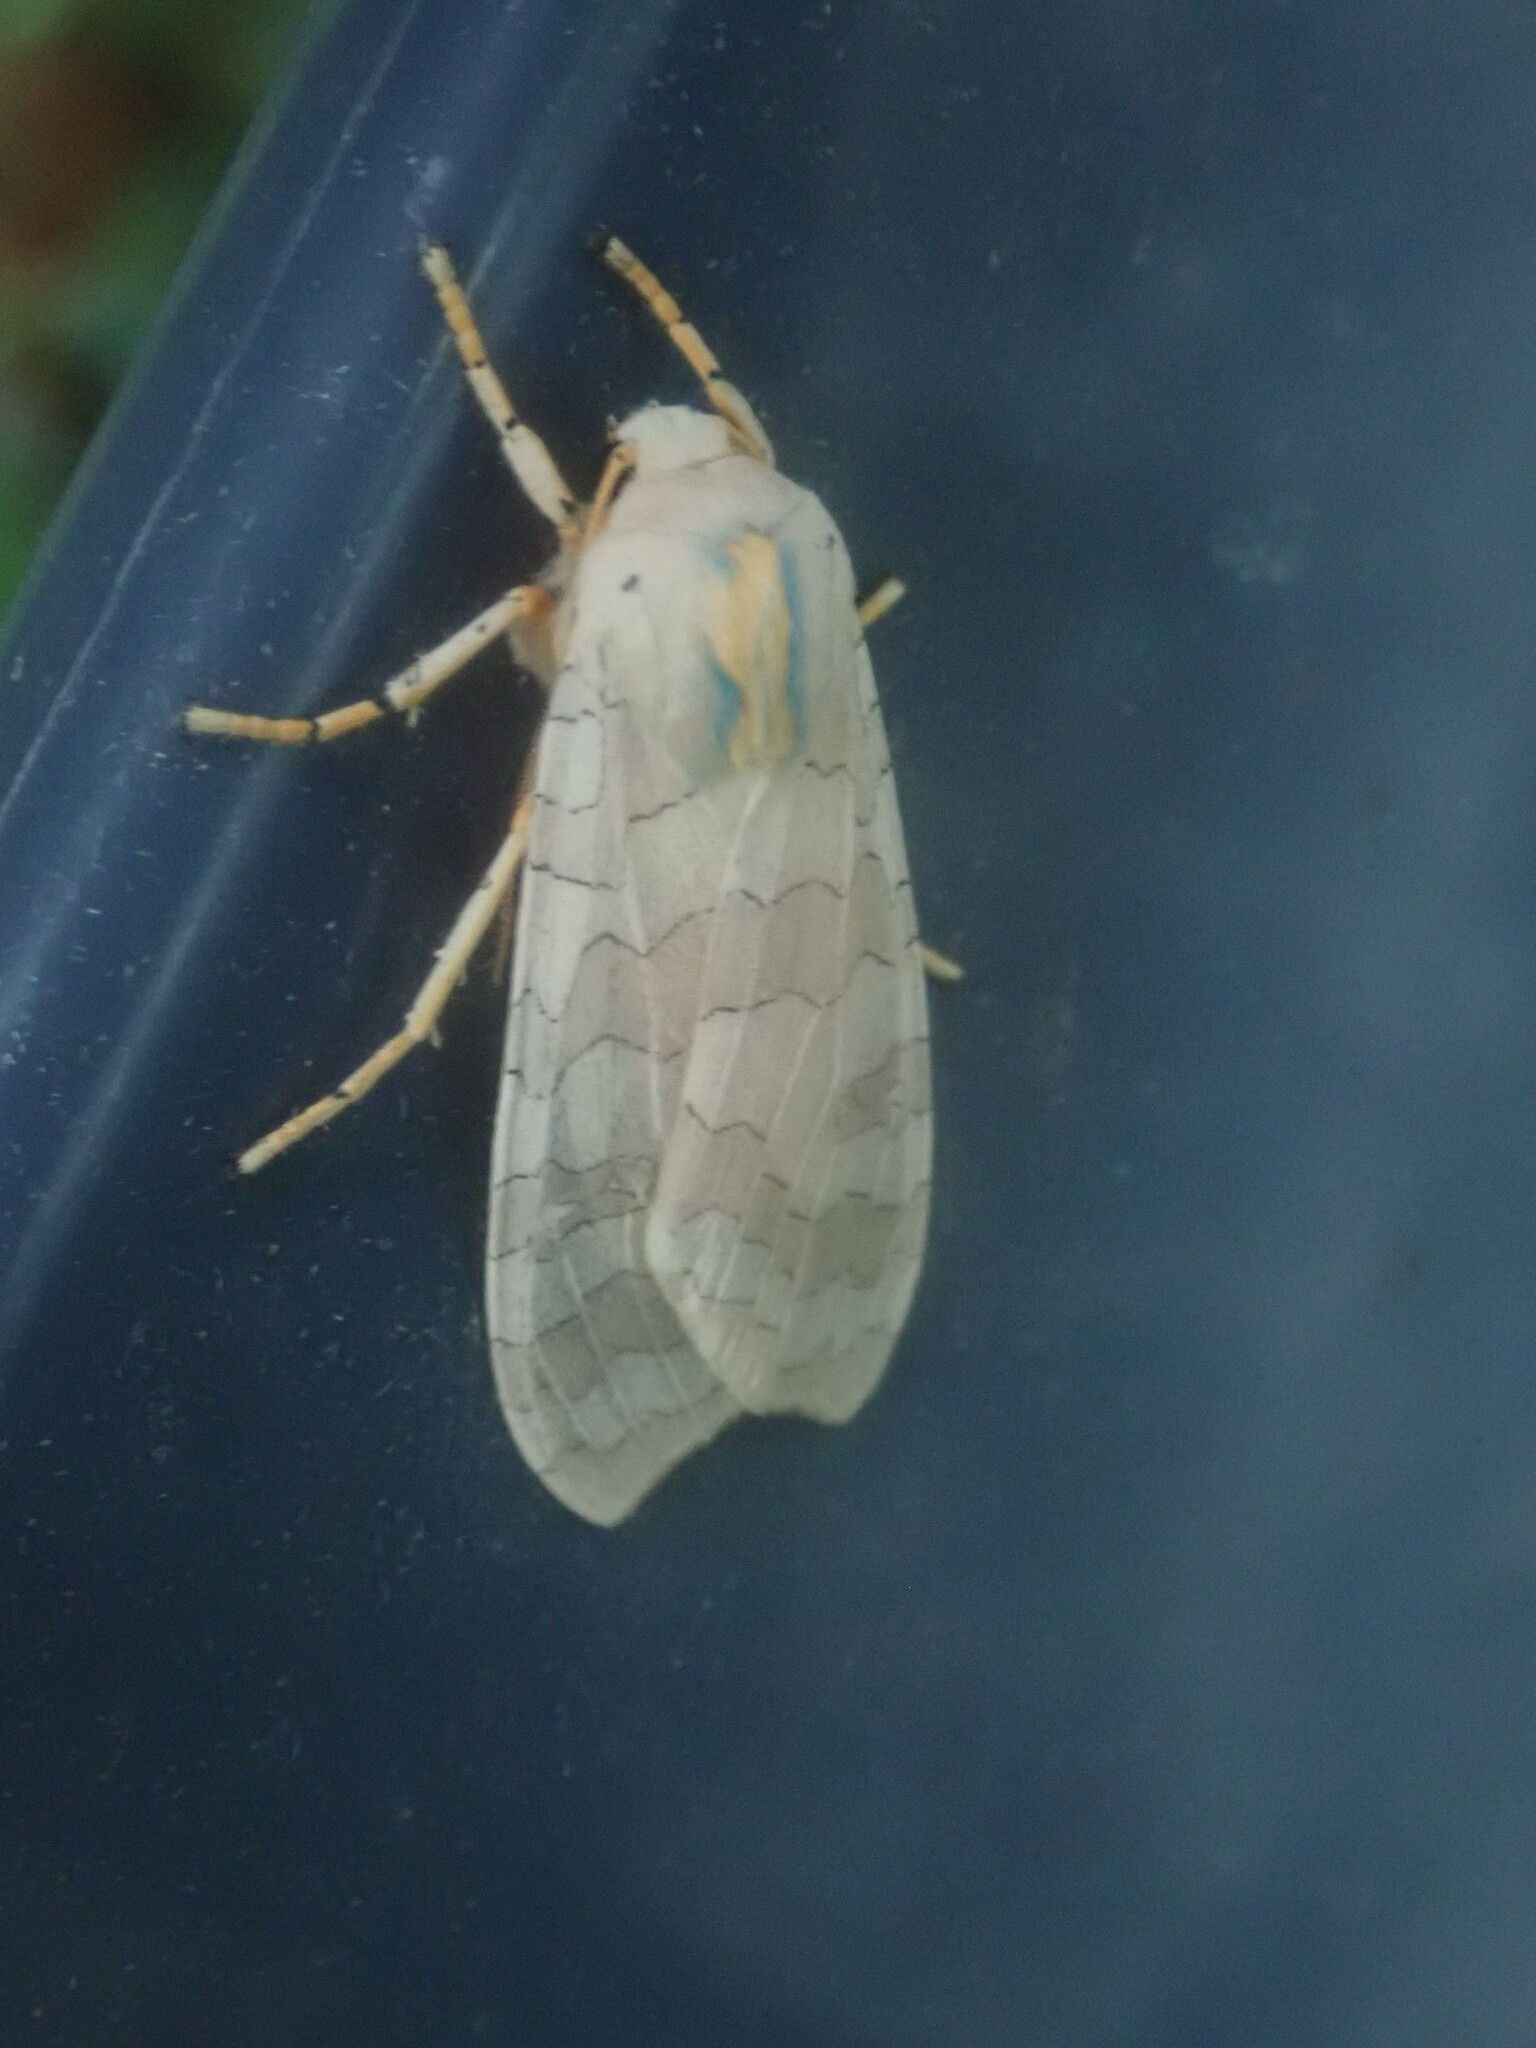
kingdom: Animalia
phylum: Arthropoda
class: Insecta
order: Lepidoptera
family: Erebidae
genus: Halysidota
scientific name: Halysidota tessellaris
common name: Banded tussock moth
